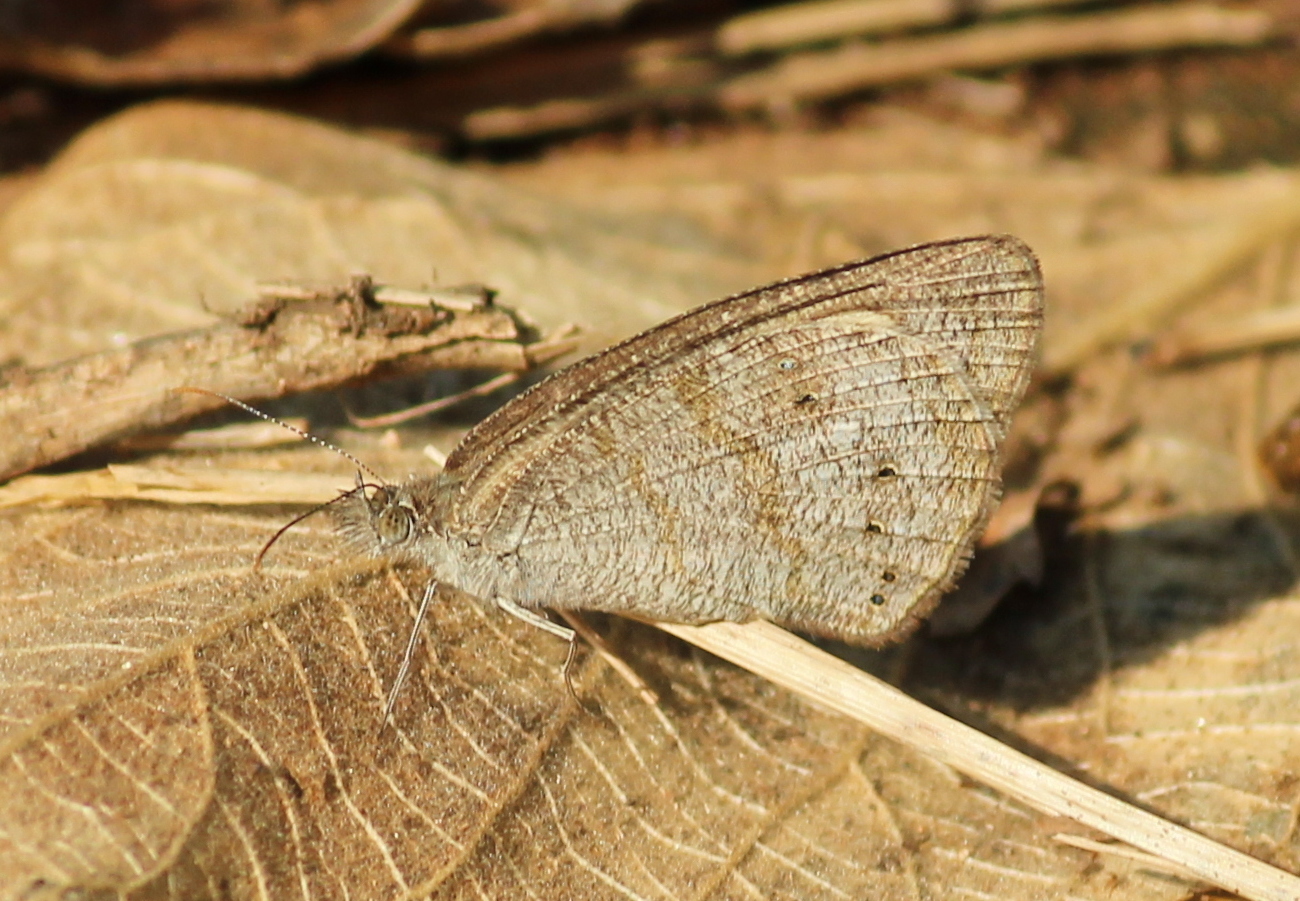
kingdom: Animalia
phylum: Arthropoda
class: Insecta
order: Lepidoptera
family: Nymphalidae
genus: Ypthima
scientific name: Ypthima baldus
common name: Common five-ring
